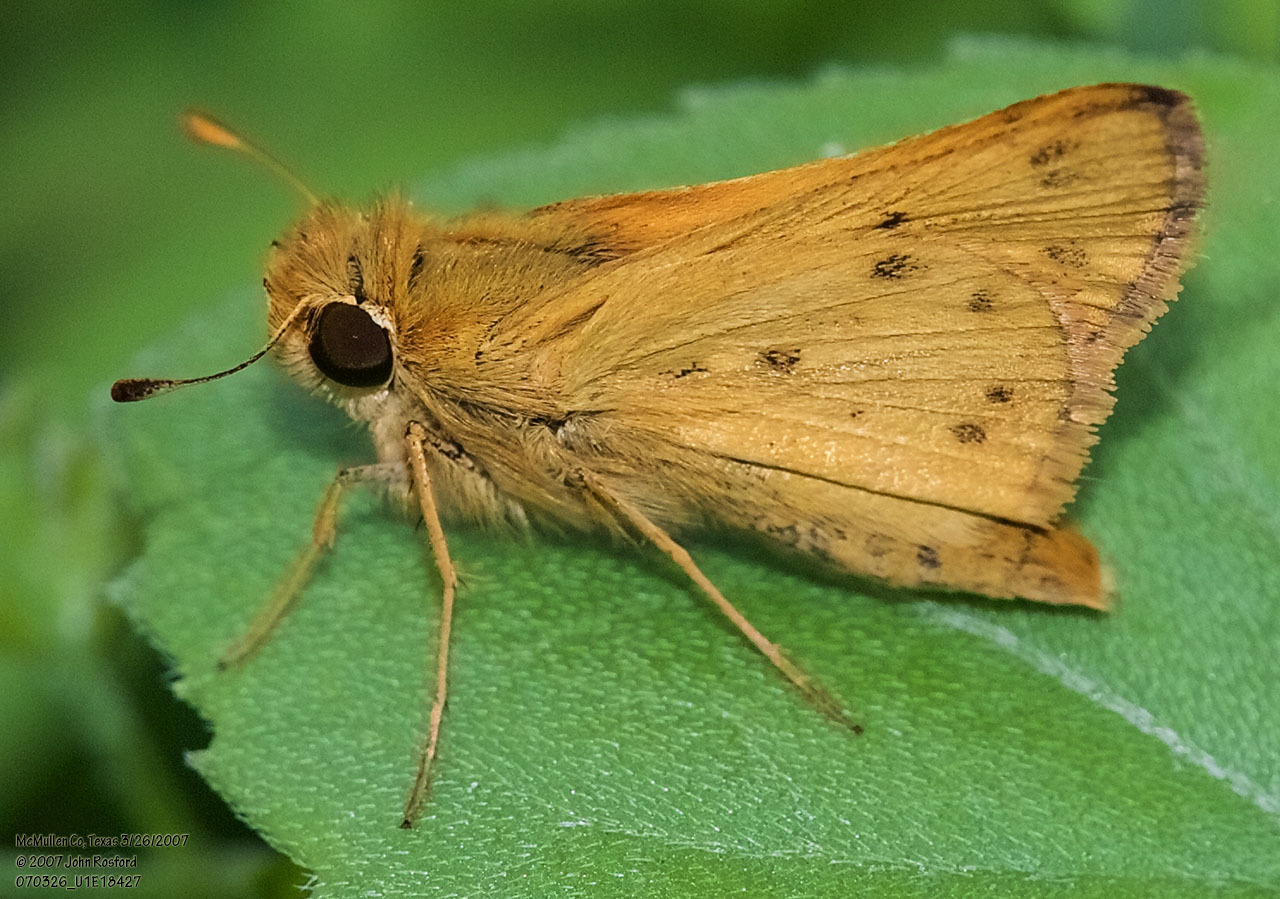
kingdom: Animalia
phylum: Arthropoda
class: Insecta
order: Lepidoptera
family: Hesperiidae
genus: Hylephila
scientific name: Hylephila phyleus
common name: Fiery skipper
